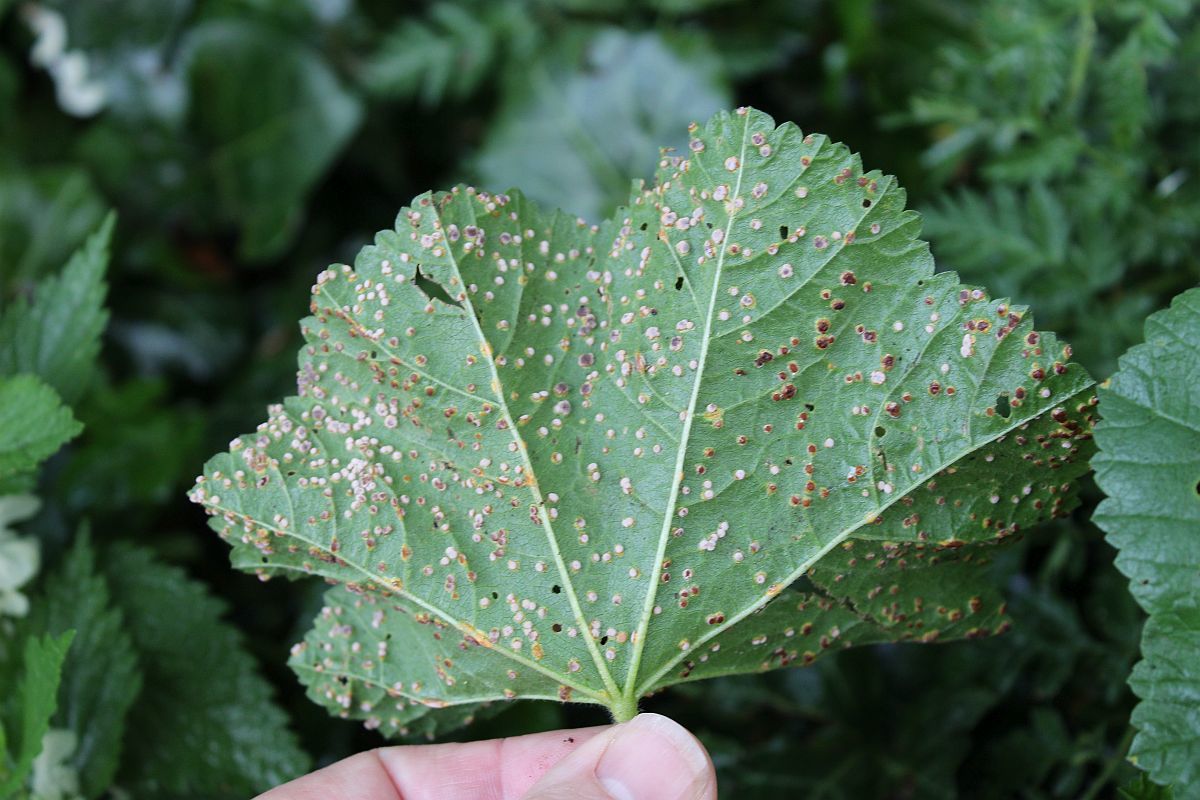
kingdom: Fungi
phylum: Basidiomycota
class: Pucciniomycetes
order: Pucciniales
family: Pucciniaceae
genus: Puccinia
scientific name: Puccinia malvacearum
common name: Hollyhock rust
